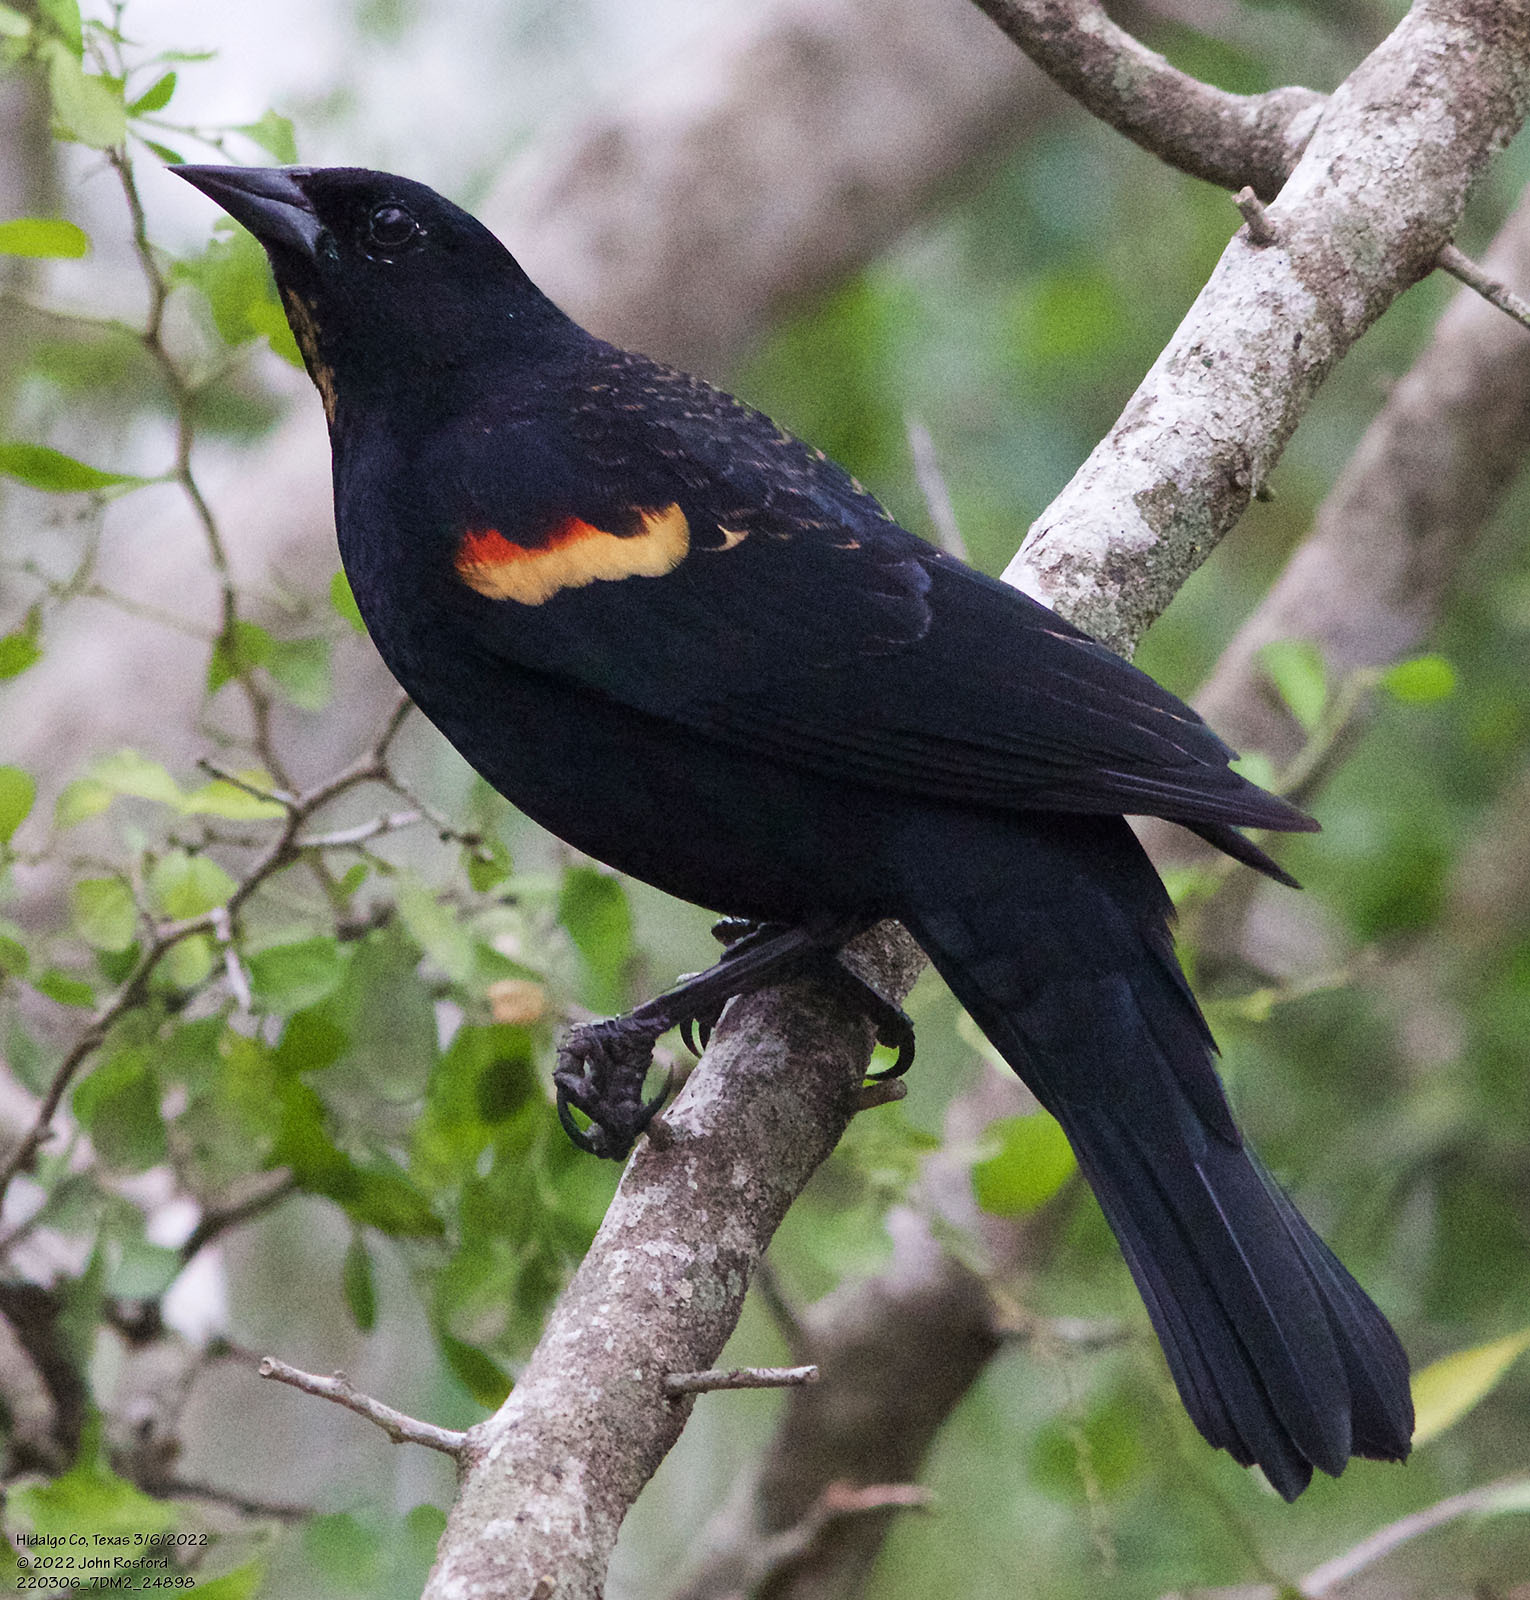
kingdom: Animalia
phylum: Chordata
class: Aves
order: Passeriformes
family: Icteridae
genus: Agelaius
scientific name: Agelaius phoeniceus
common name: Red-winged blackbird
